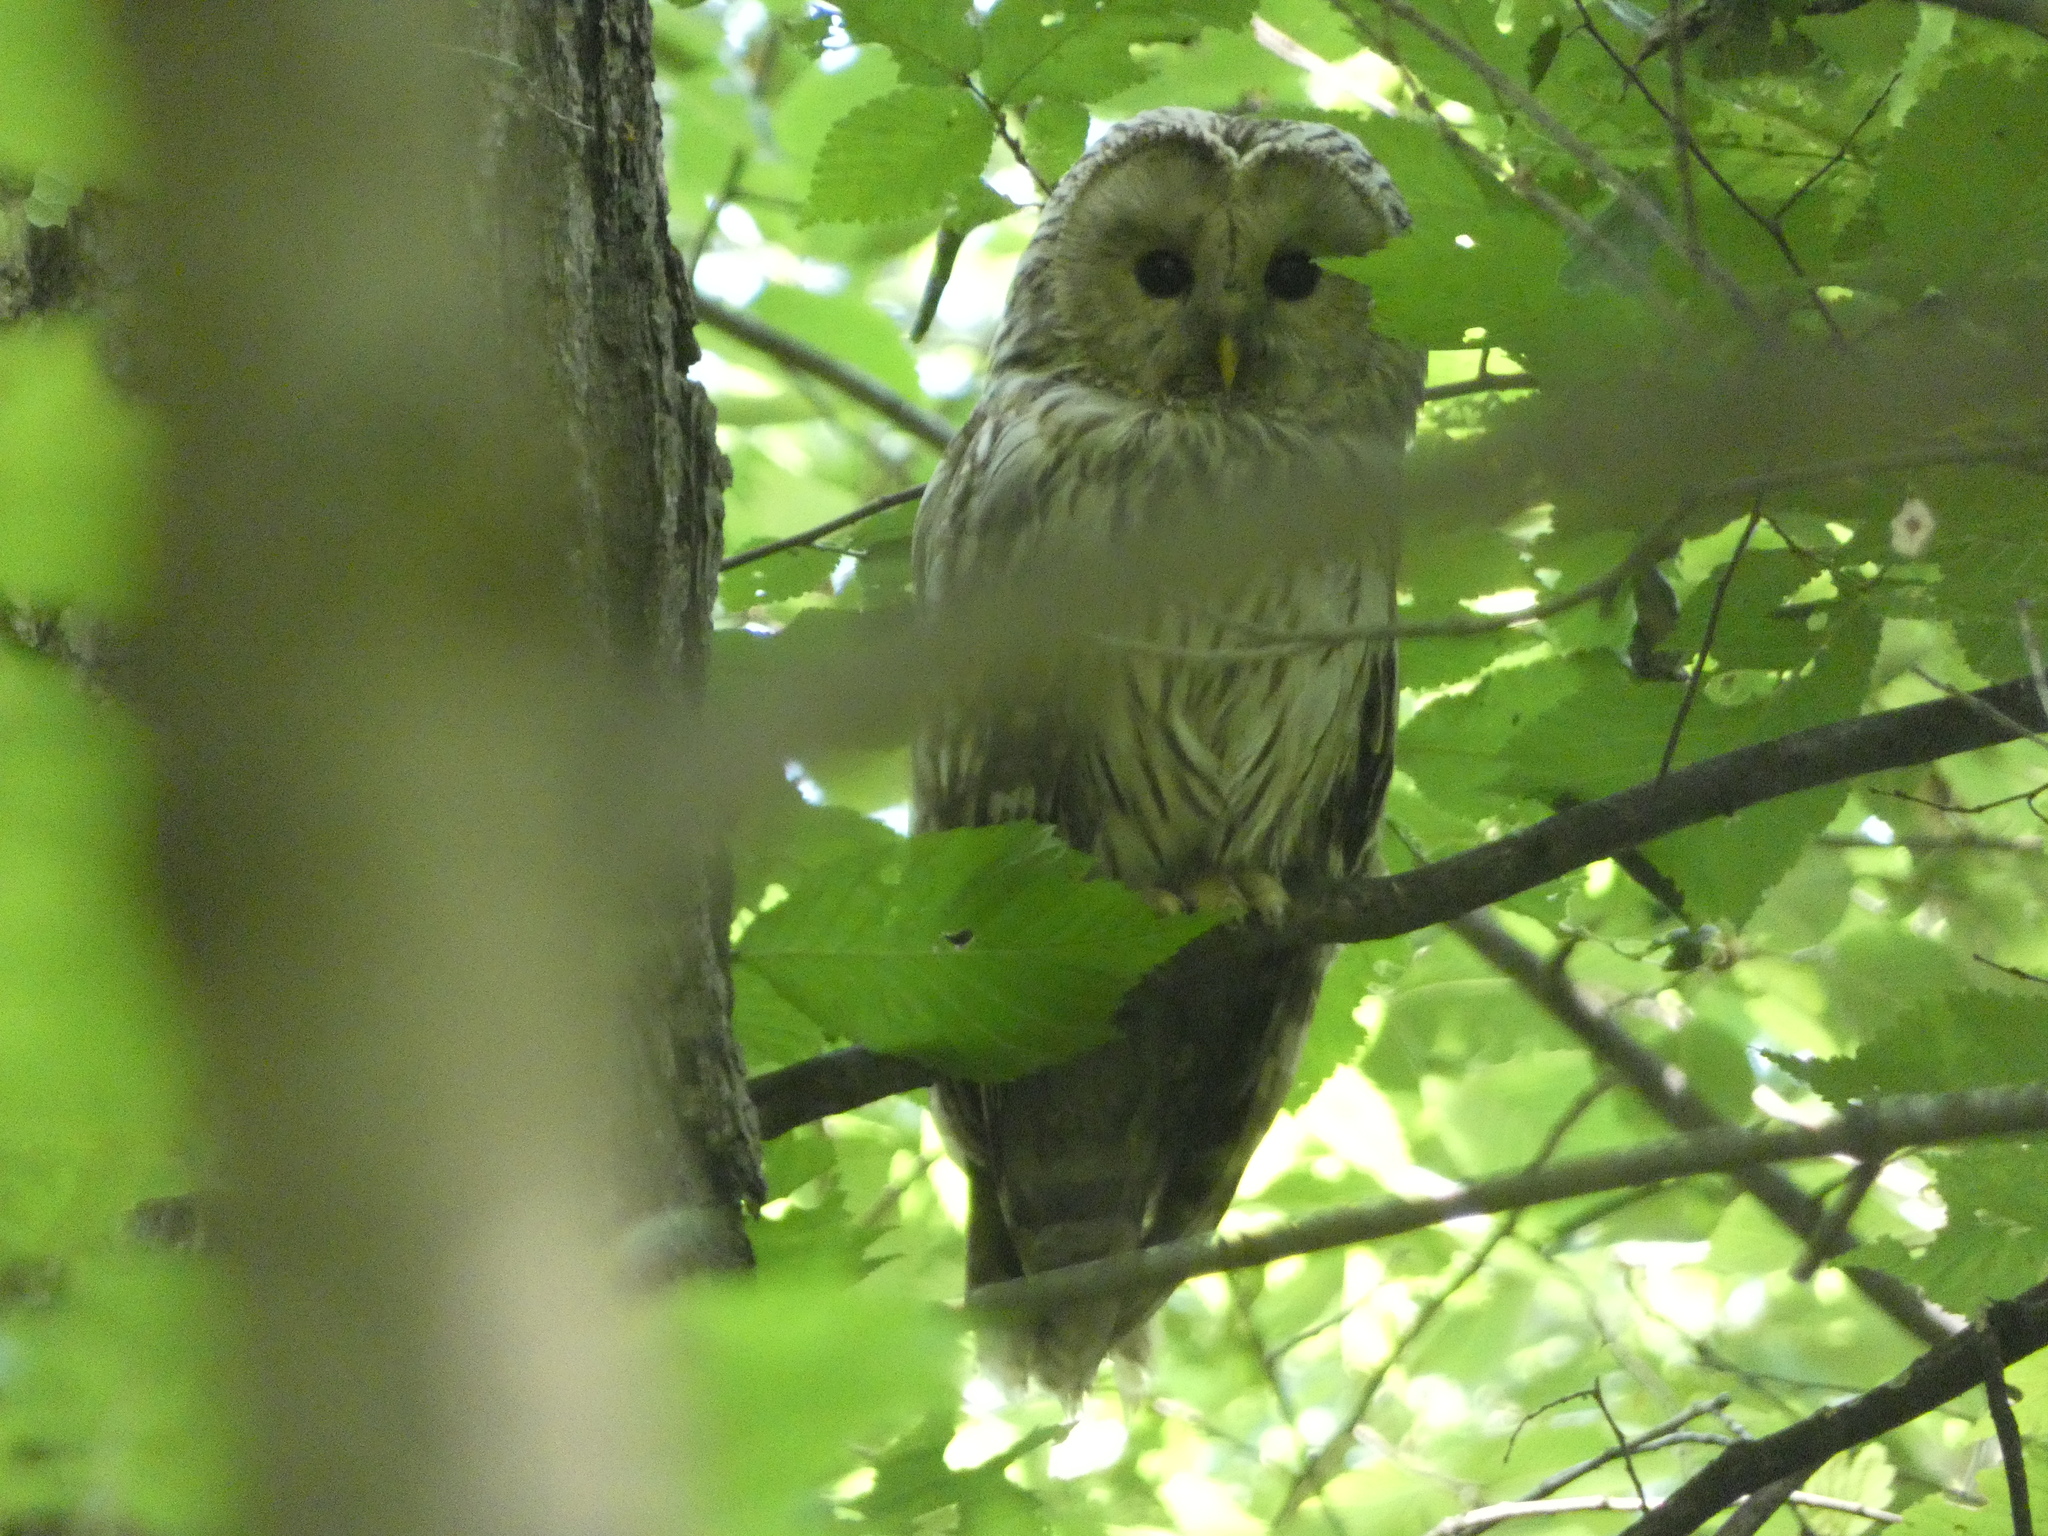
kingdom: Animalia
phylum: Chordata
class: Aves
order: Strigiformes
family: Strigidae
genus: Strix
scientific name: Strix uralensis
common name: Ural owl
